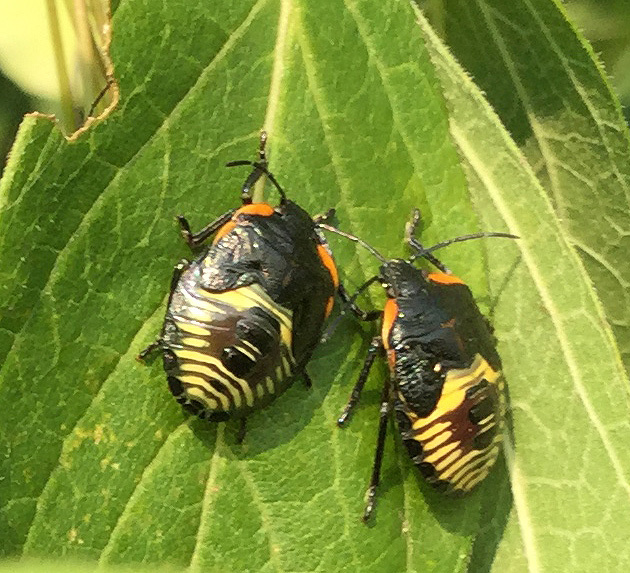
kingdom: Animalia
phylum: Arthropoda
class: Insecta
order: Hemiptera
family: Pentatomidae
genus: Chinavia
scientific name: Chinavia hilaris
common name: Green stink bug
